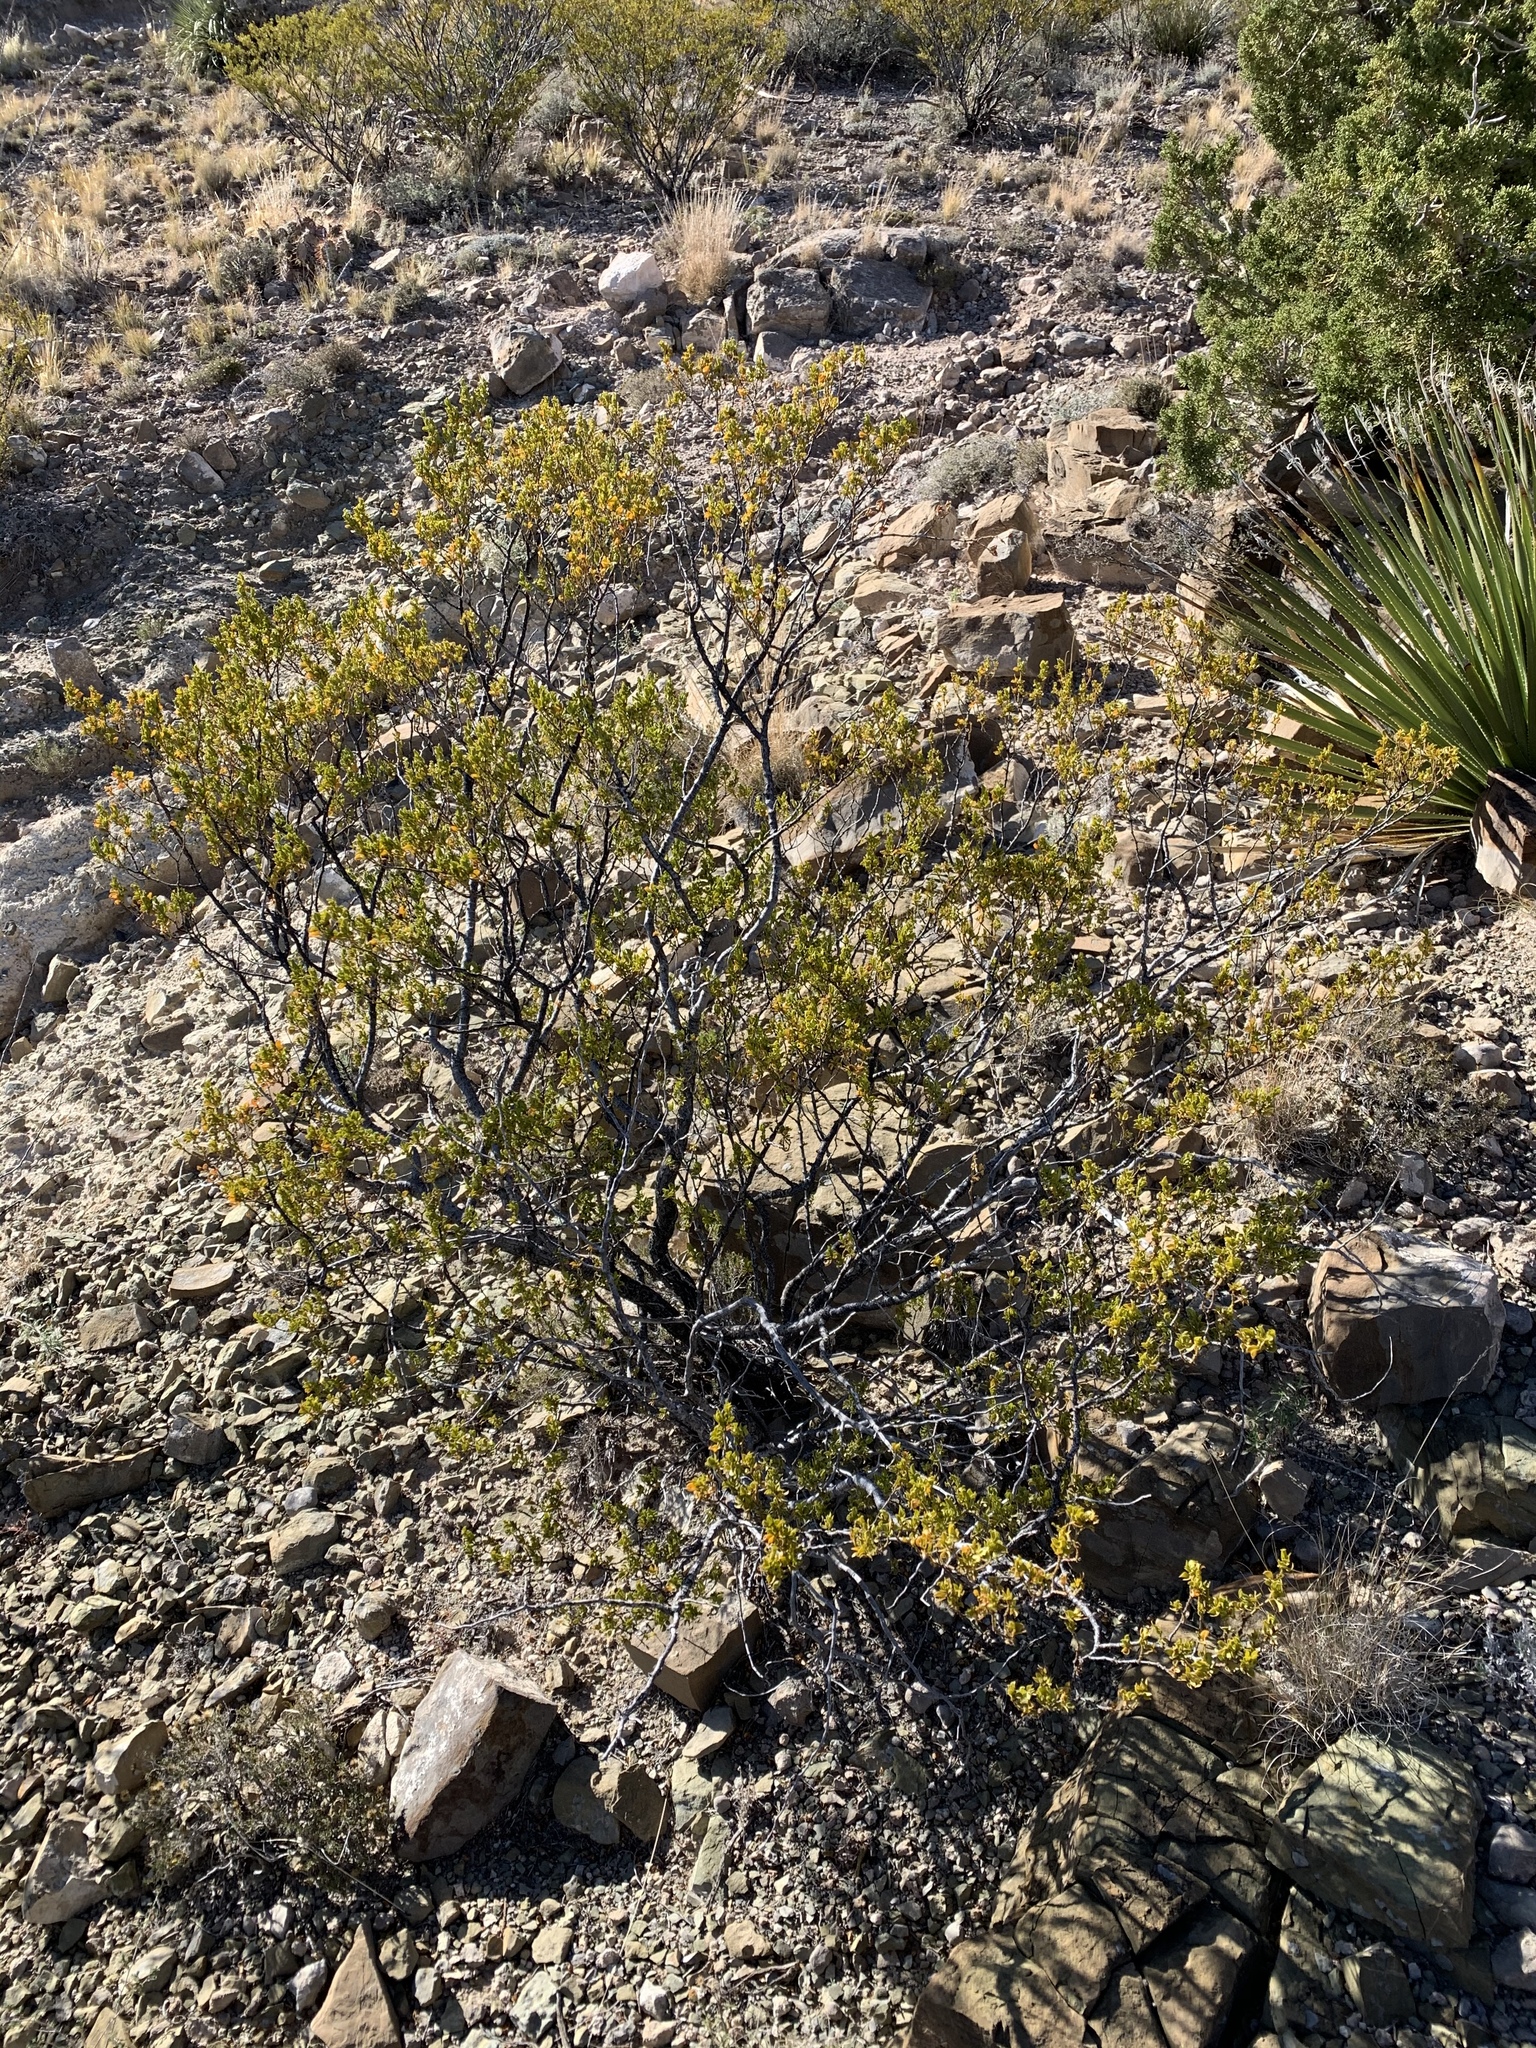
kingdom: Plantae
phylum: Tracheophyta
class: Magnoliopsida
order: Zygophyllales
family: Zygophyllaceae
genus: Larrea
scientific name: Larrea tridentata
